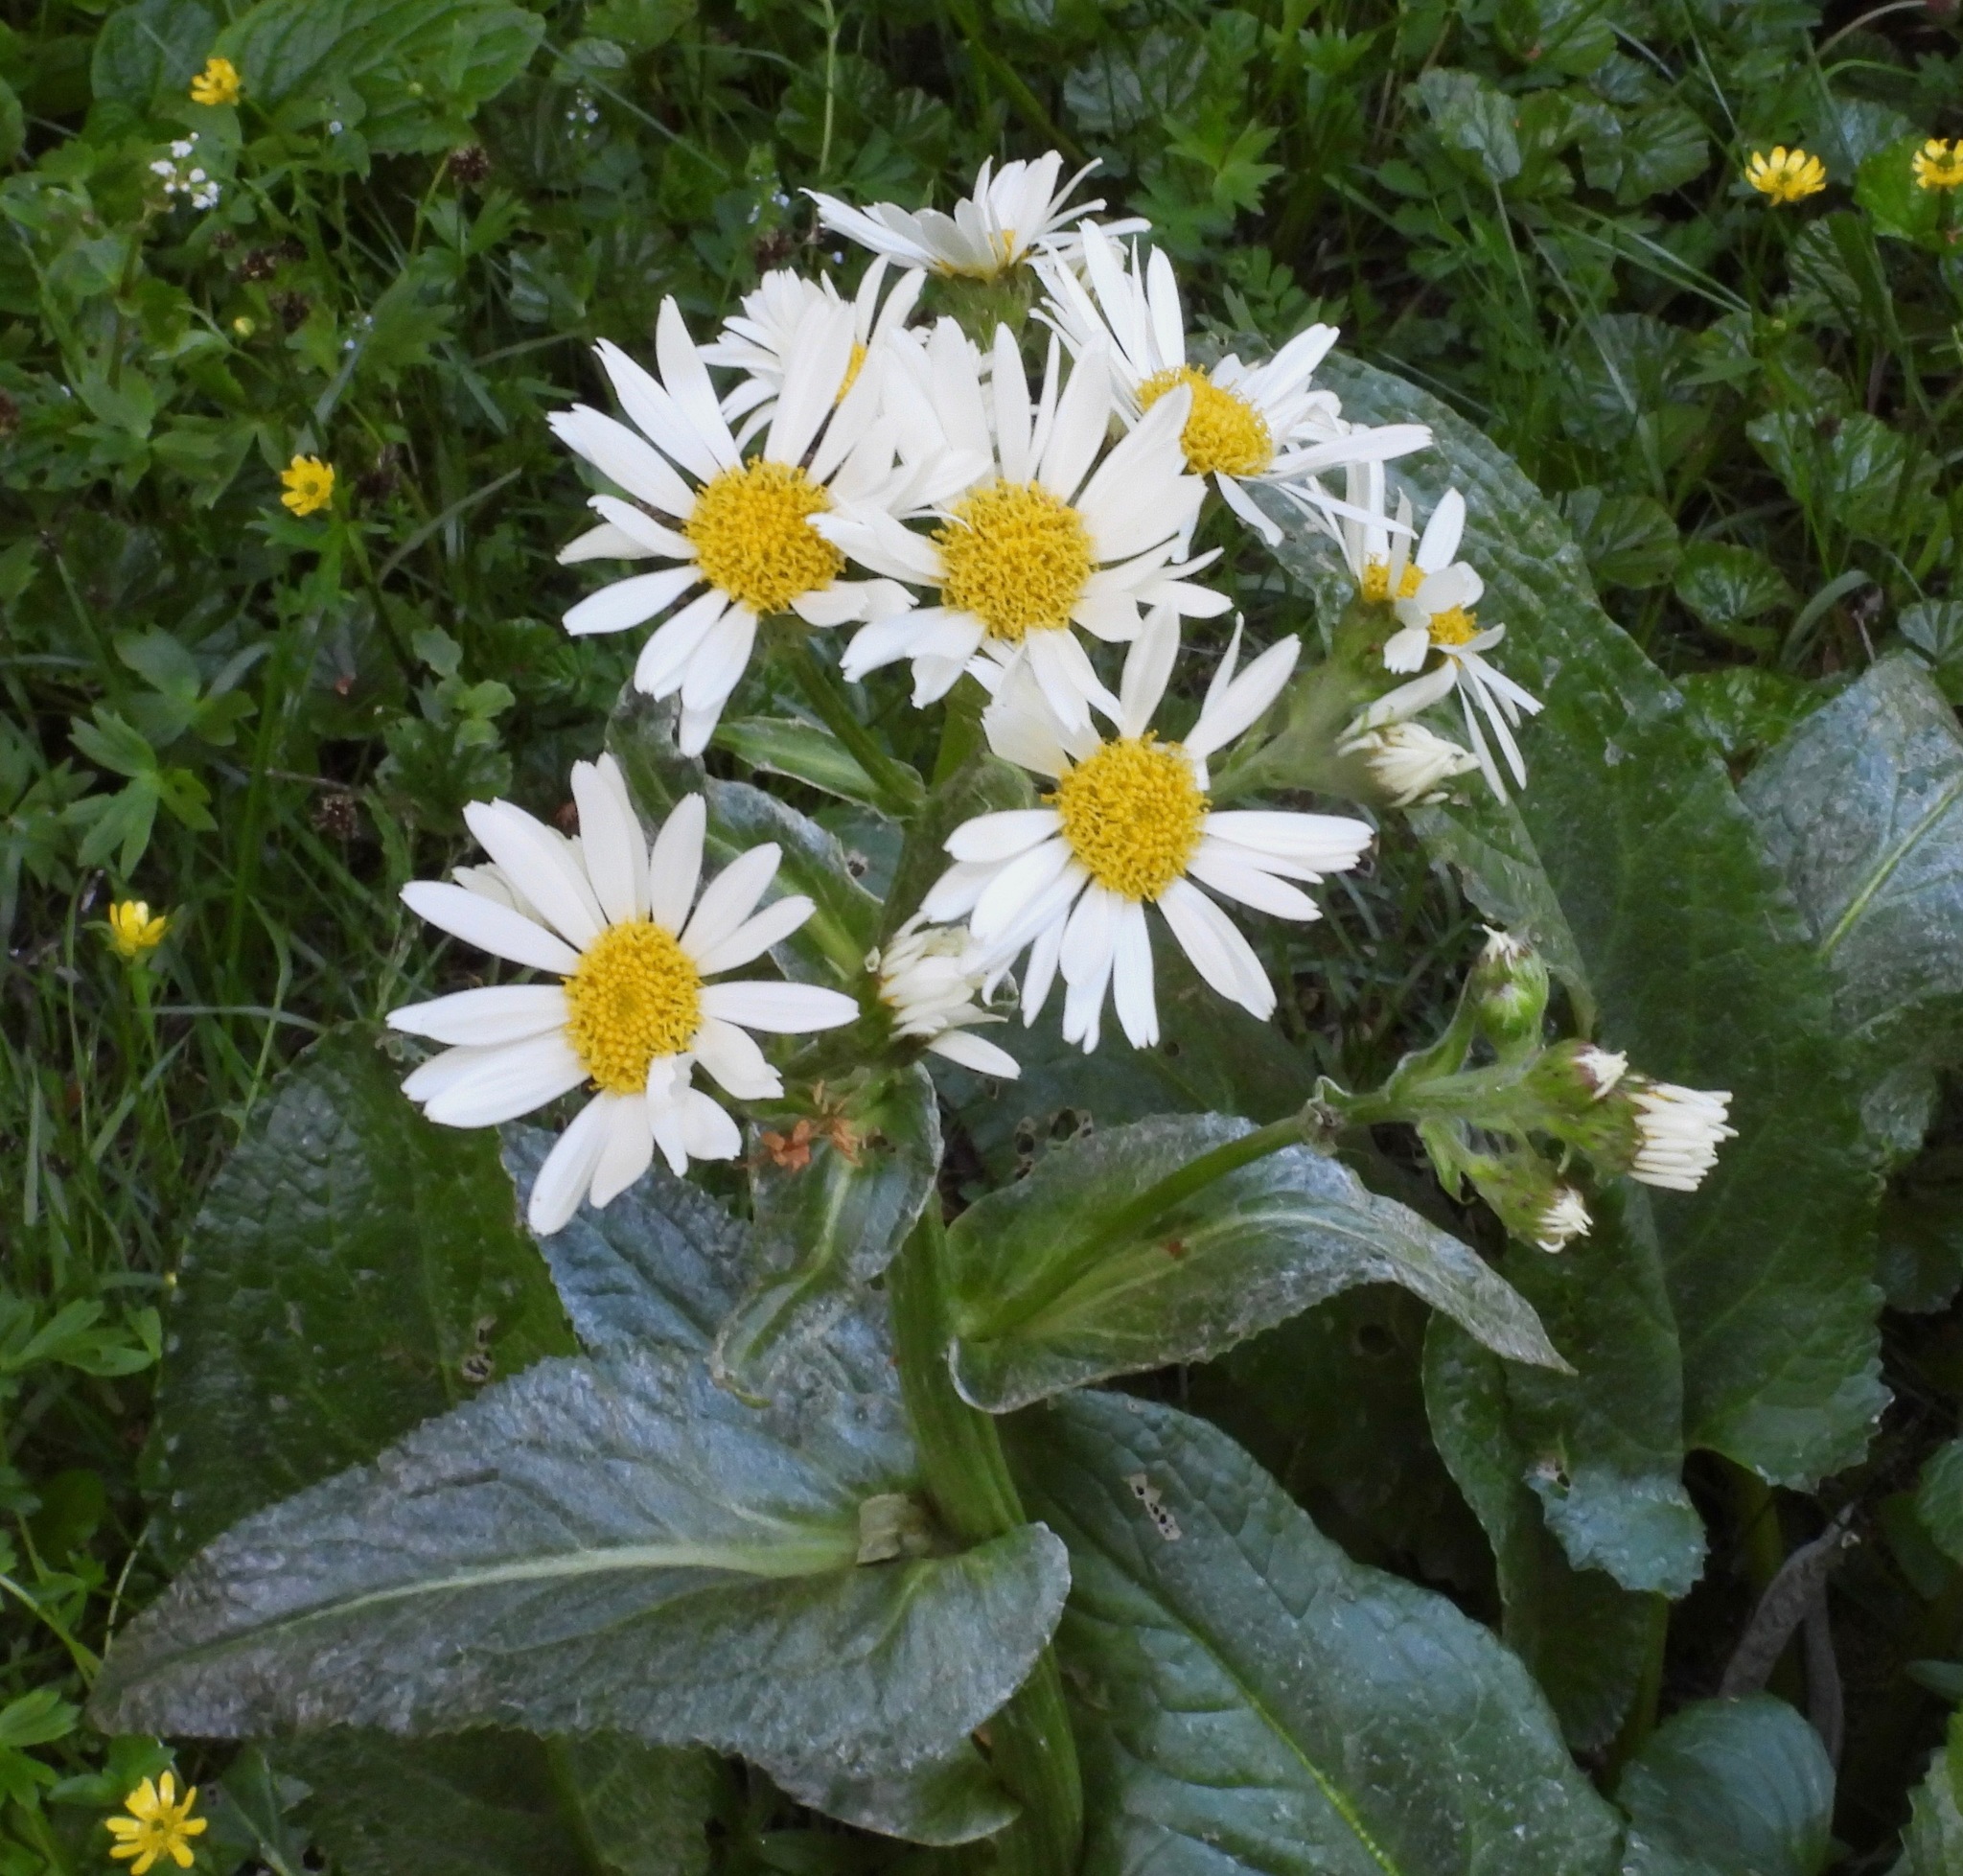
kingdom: Plantae
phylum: Tracheophyta
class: Magnoliopsida
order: Asterales
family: Asteraceae
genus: Senecio
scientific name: Senecio smithii
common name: Magellan ragwort
